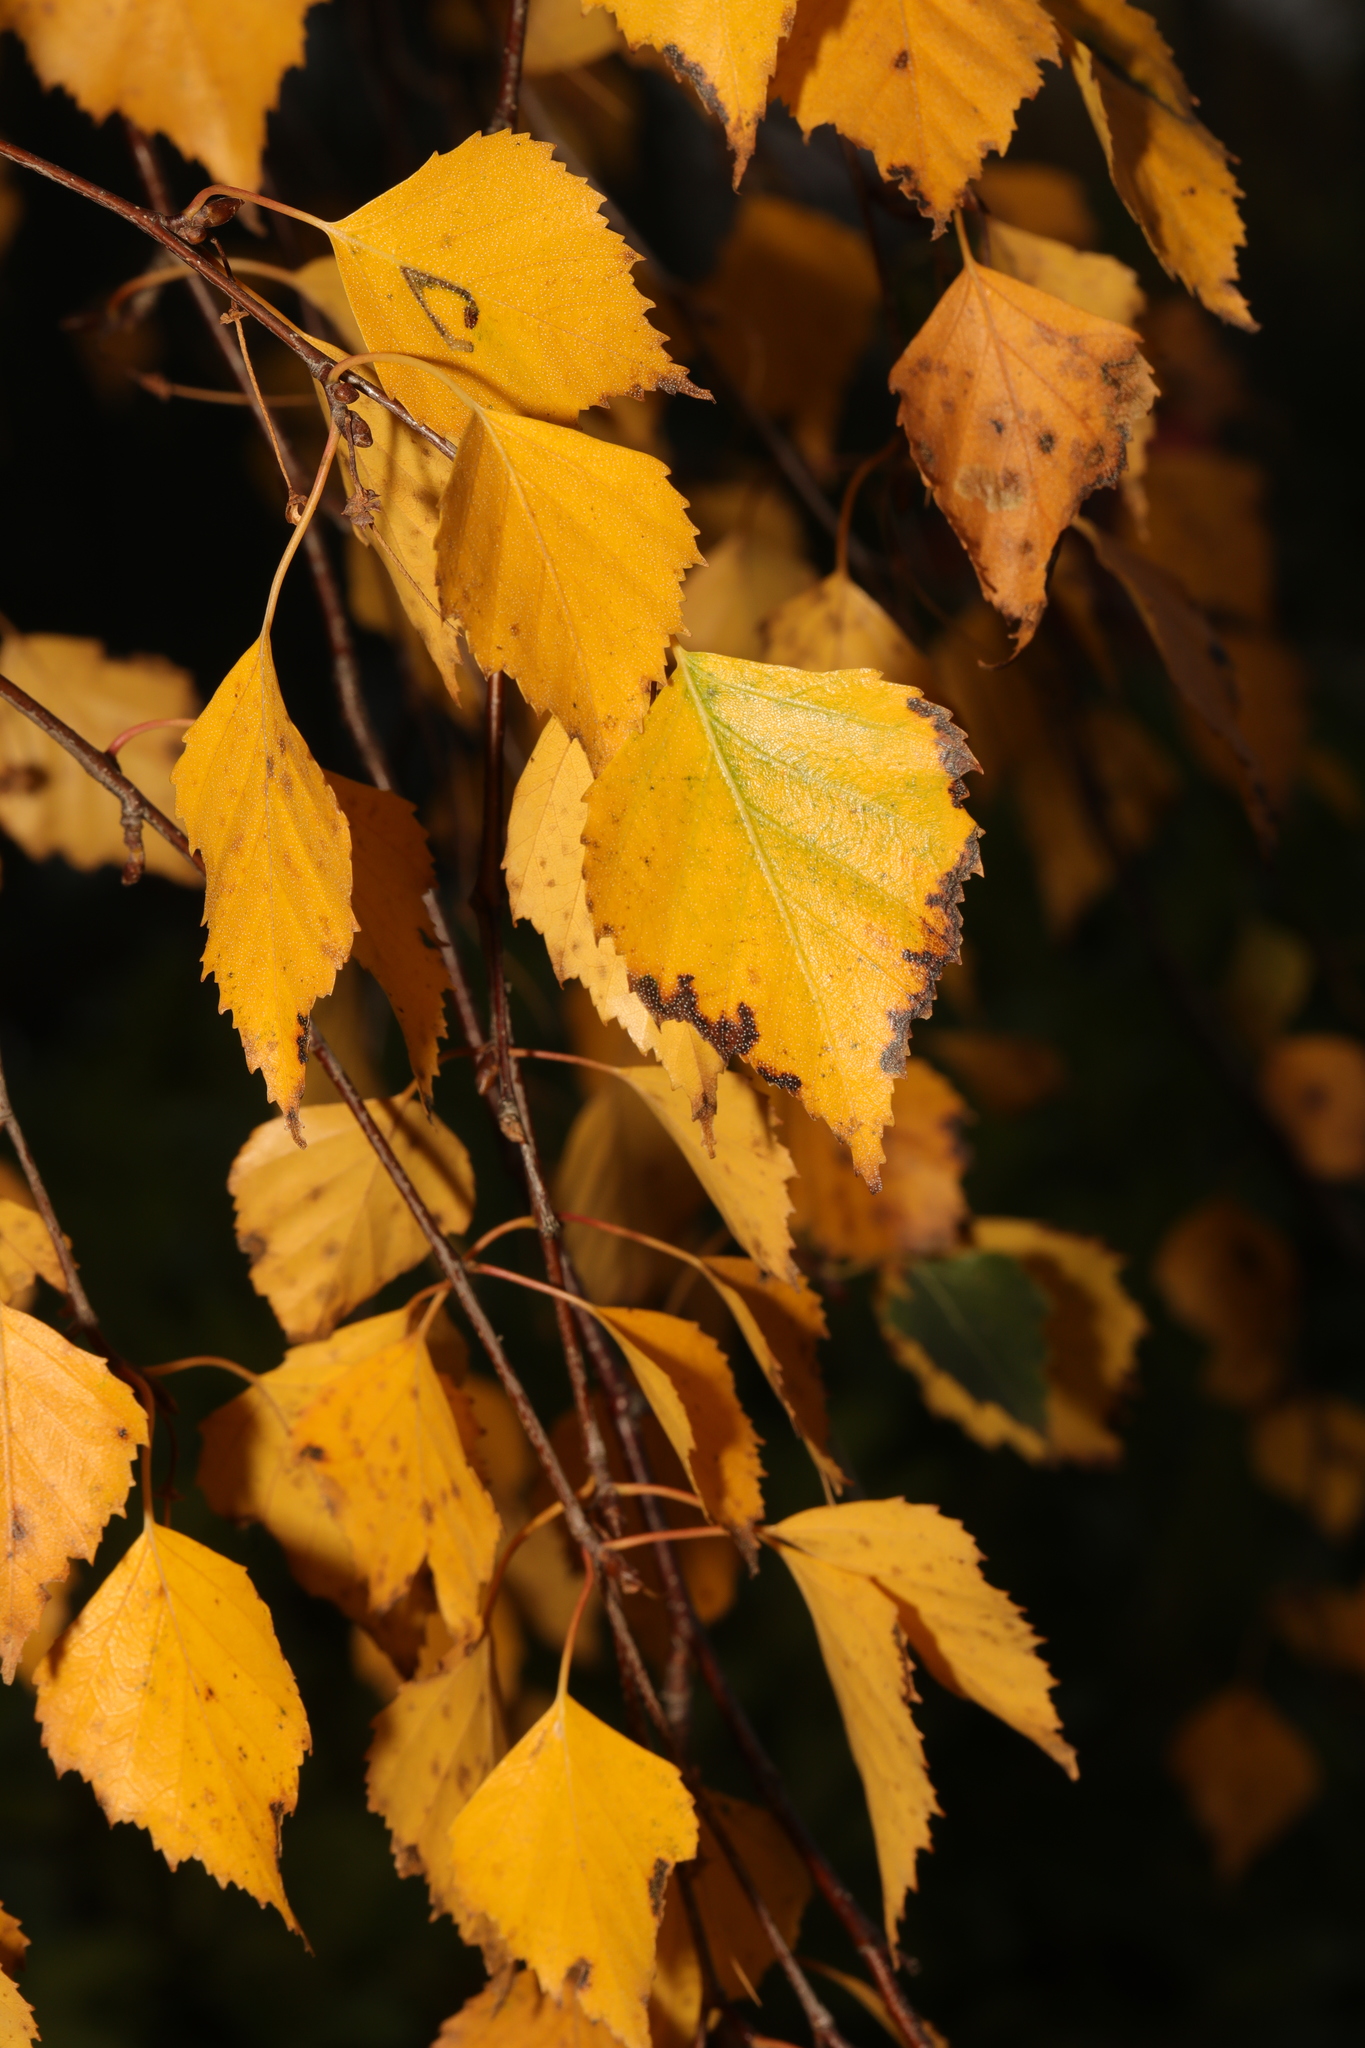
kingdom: Plantae
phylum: Tracheophyta
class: Magnoliopsida
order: Fagales
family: Betulaceae
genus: Betula
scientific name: Betula pendula
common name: Silver birch
